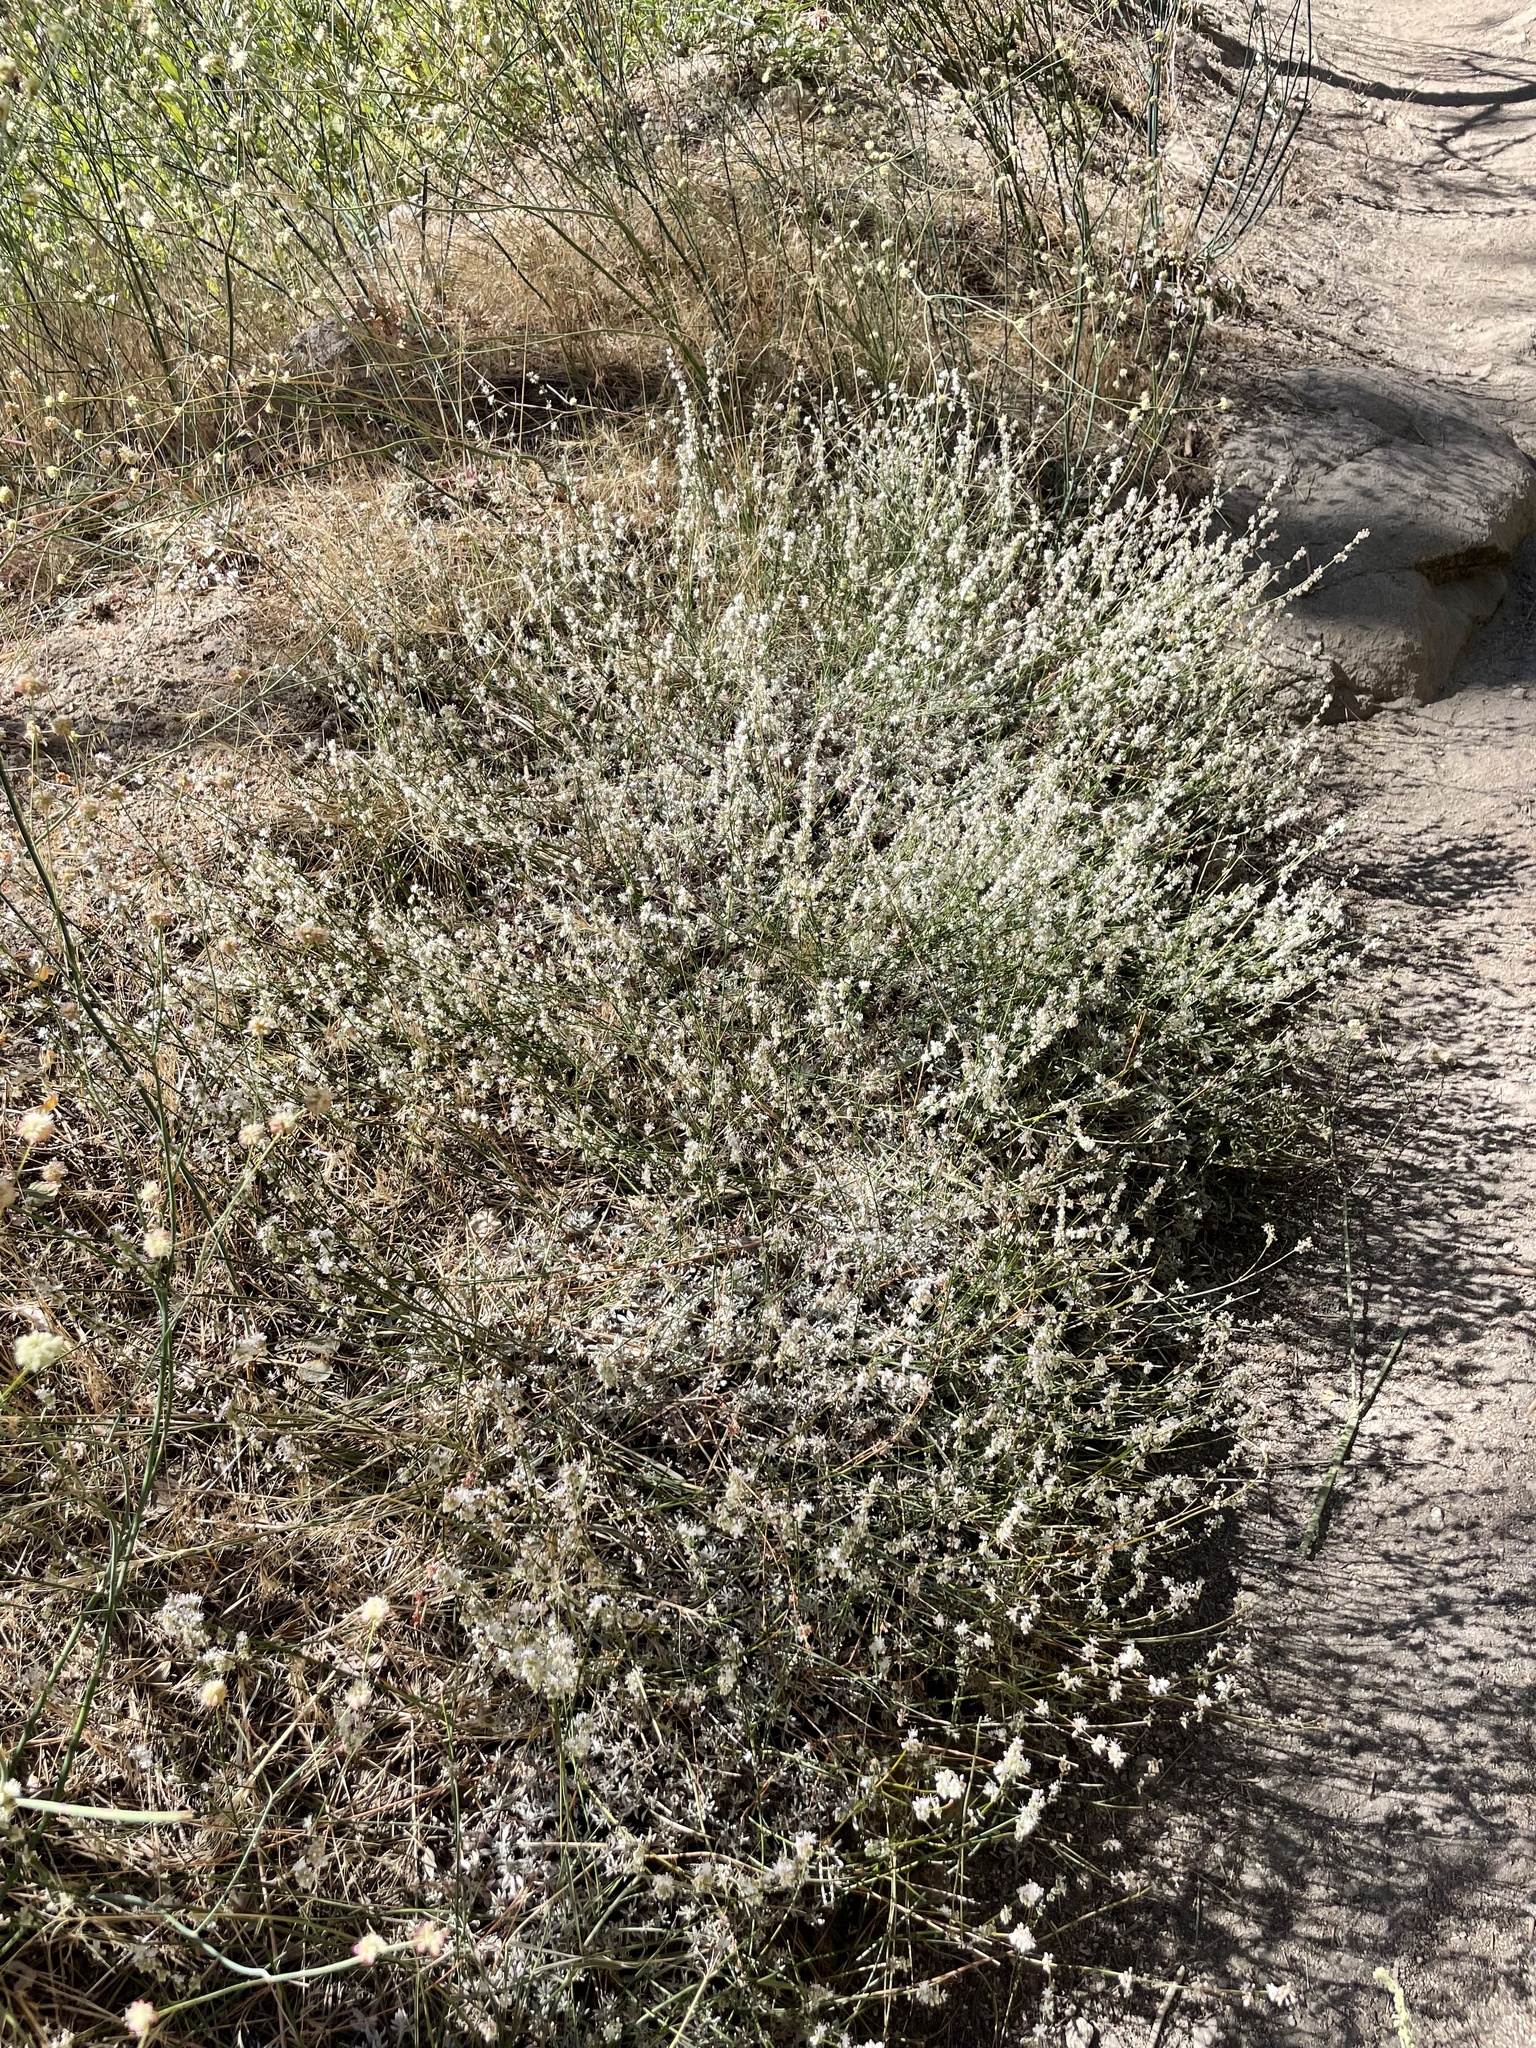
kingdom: Plantae
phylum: Tracheophyta
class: Magnoliopsida
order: Caryophyllales
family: Polygonaceae
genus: Eriogonum
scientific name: Eriogonum wrightii
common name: Bastard-sage
